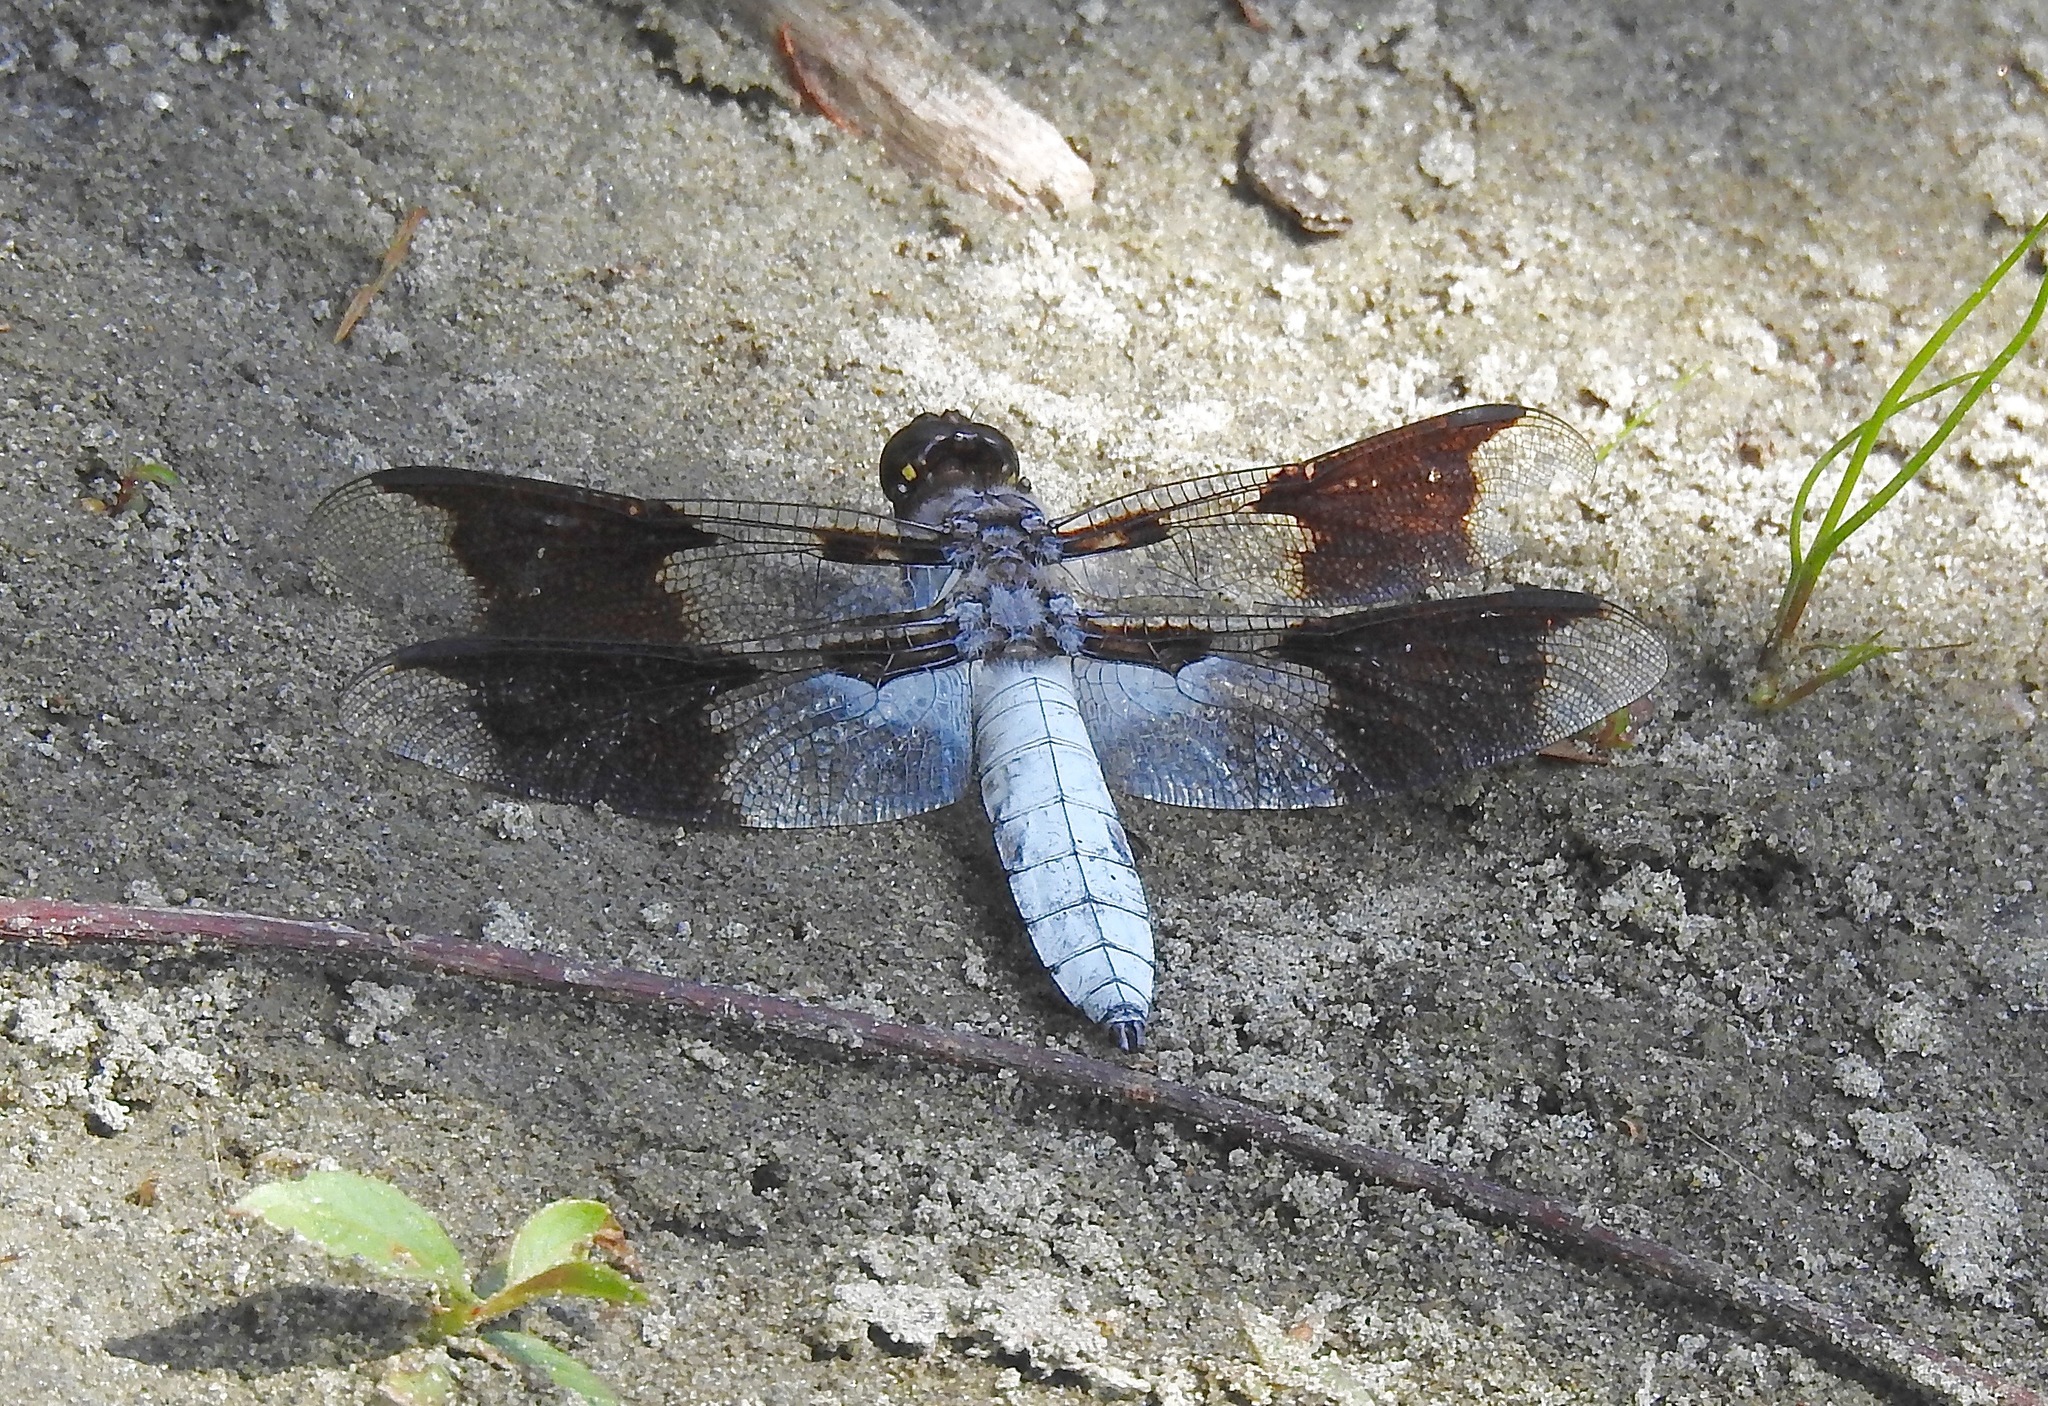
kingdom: Animalia
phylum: Arthropoda
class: Insecta
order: Odonata
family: Libellulidae
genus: Plathemis
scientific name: Plathemis lydia
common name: Common whitetail
